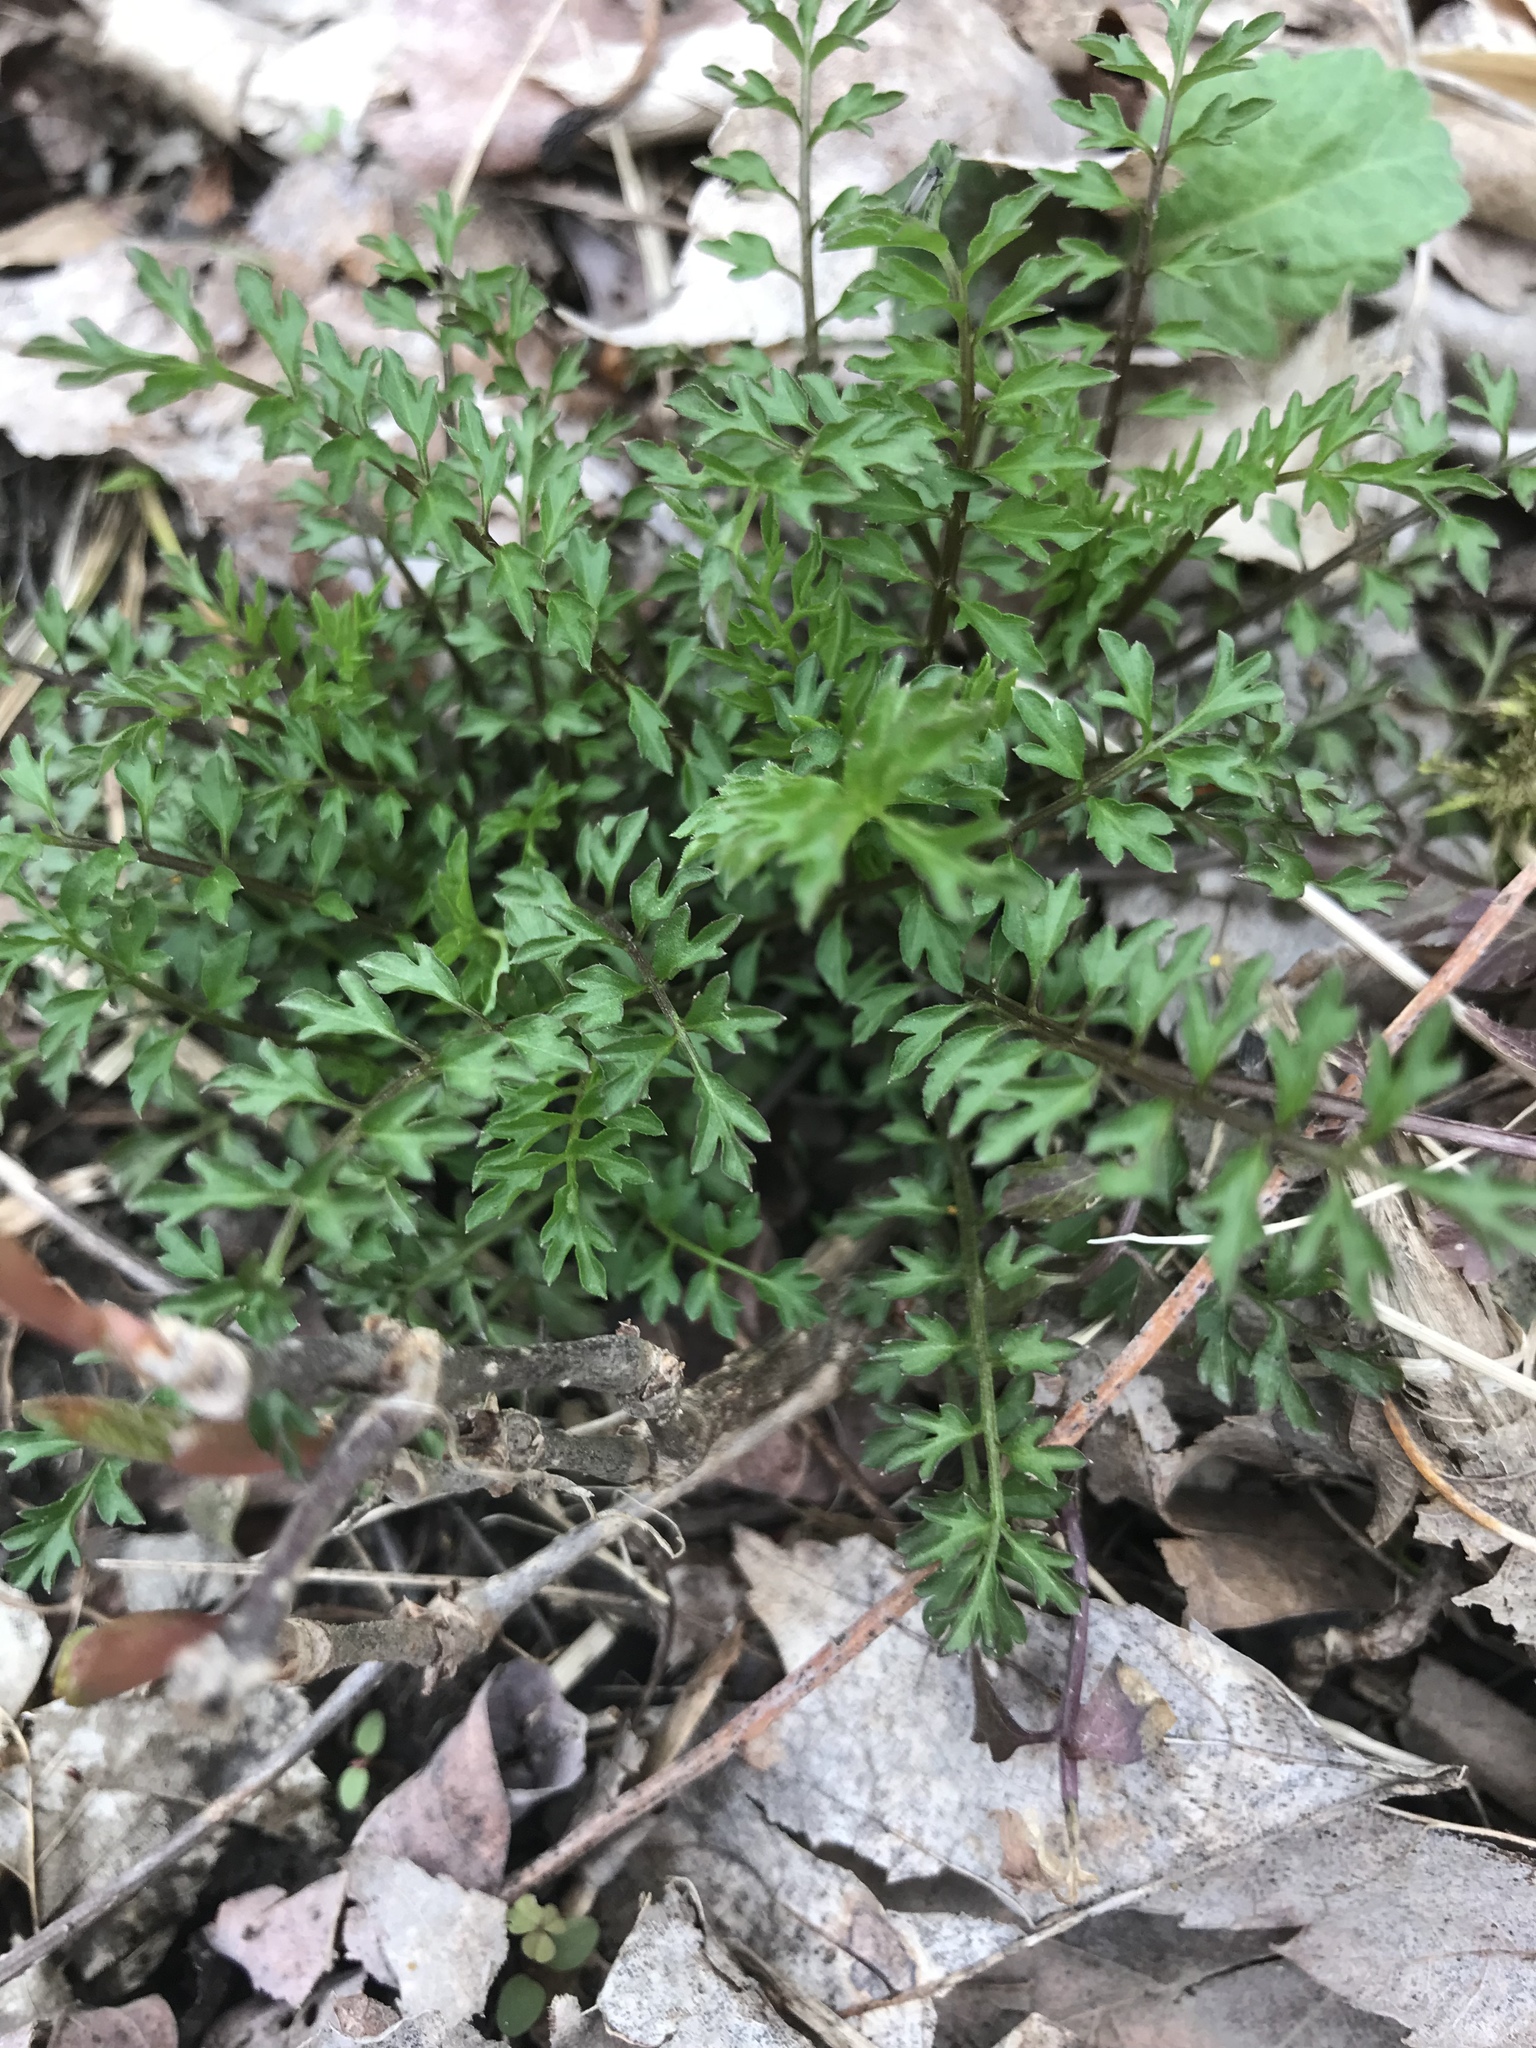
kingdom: Plantae
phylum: Tracheophyta
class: Magnoliopsida
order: Brassicales
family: Brassicaceae
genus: Cardamine
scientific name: Cardamine impatiens
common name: Narrow-leaved bitter-cress
